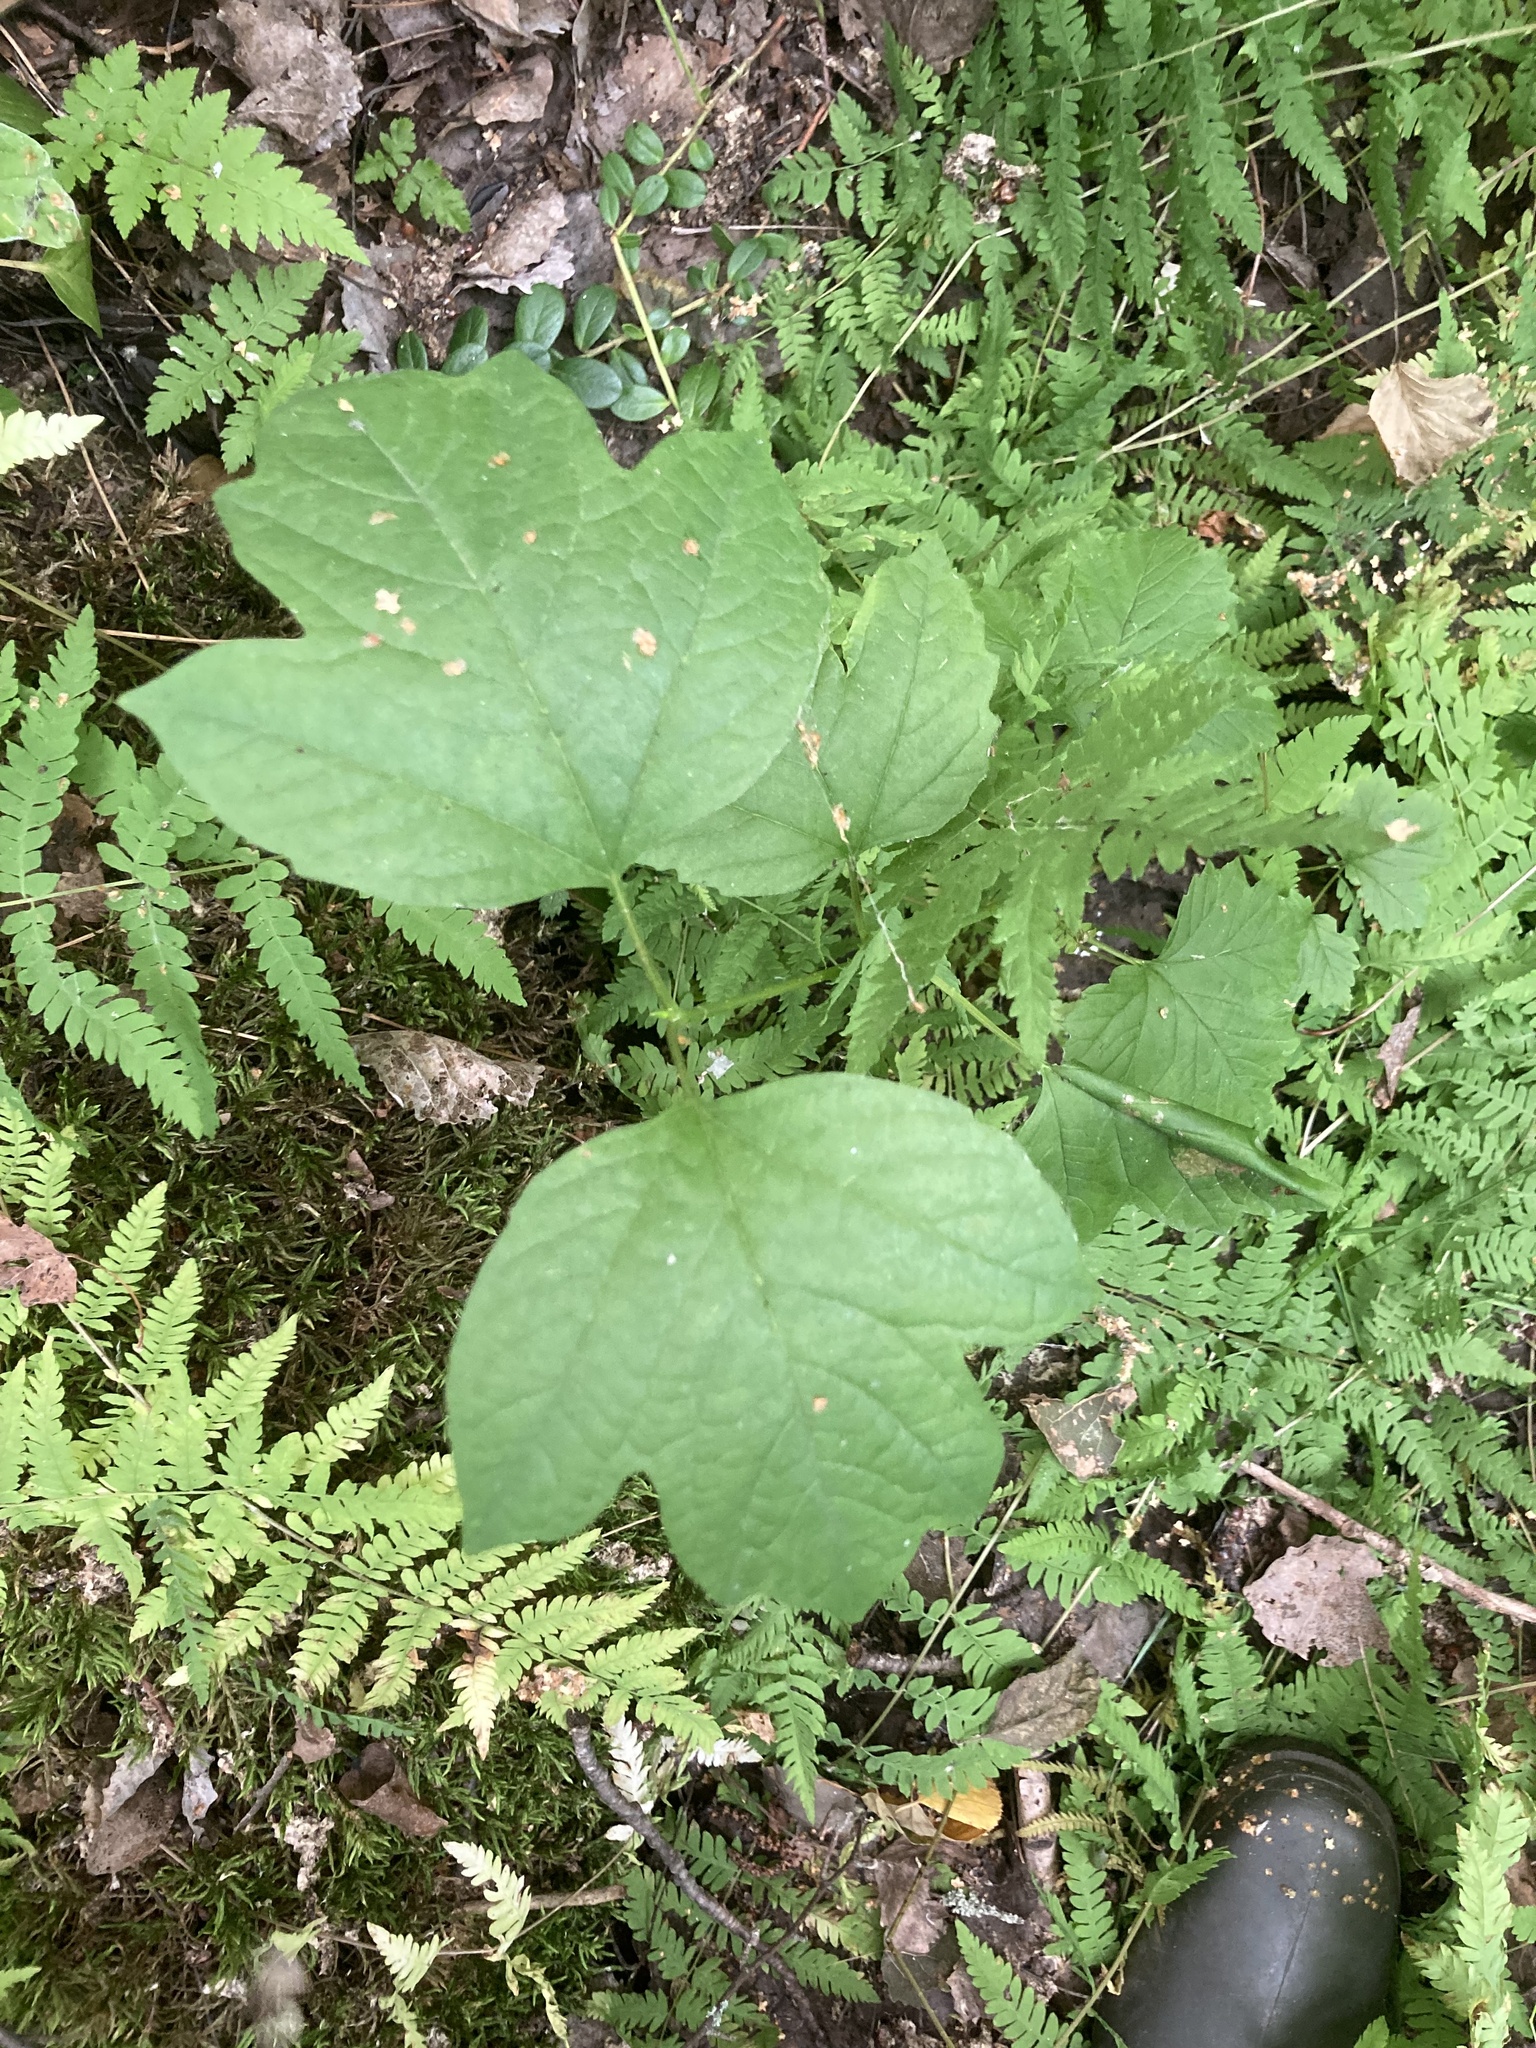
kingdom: Plantae
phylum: Tracheophyta
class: Magnoliopsida
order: Dipsacales
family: Viburnaceae
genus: Viburnum
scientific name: Viburnum opulus
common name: Guelder-rose
